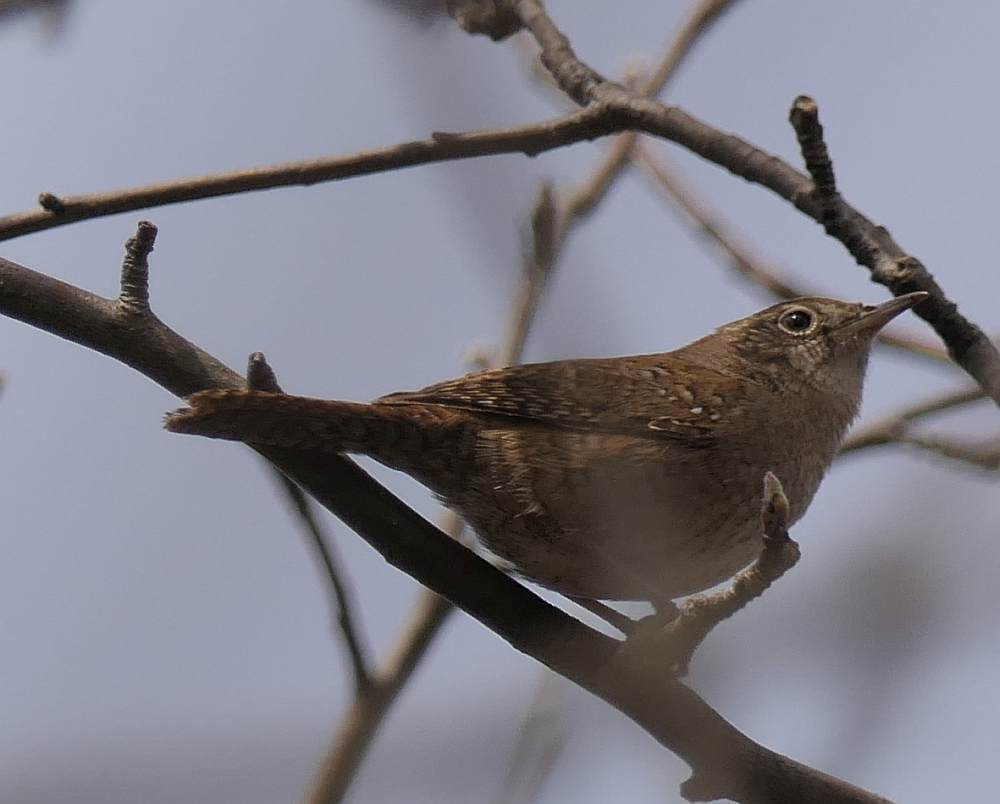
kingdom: Animalia
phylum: Chordata
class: Aves
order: Passeriformes
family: Troglodytidae
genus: Troglodytes
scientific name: Troglodytes aedon
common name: House wren
